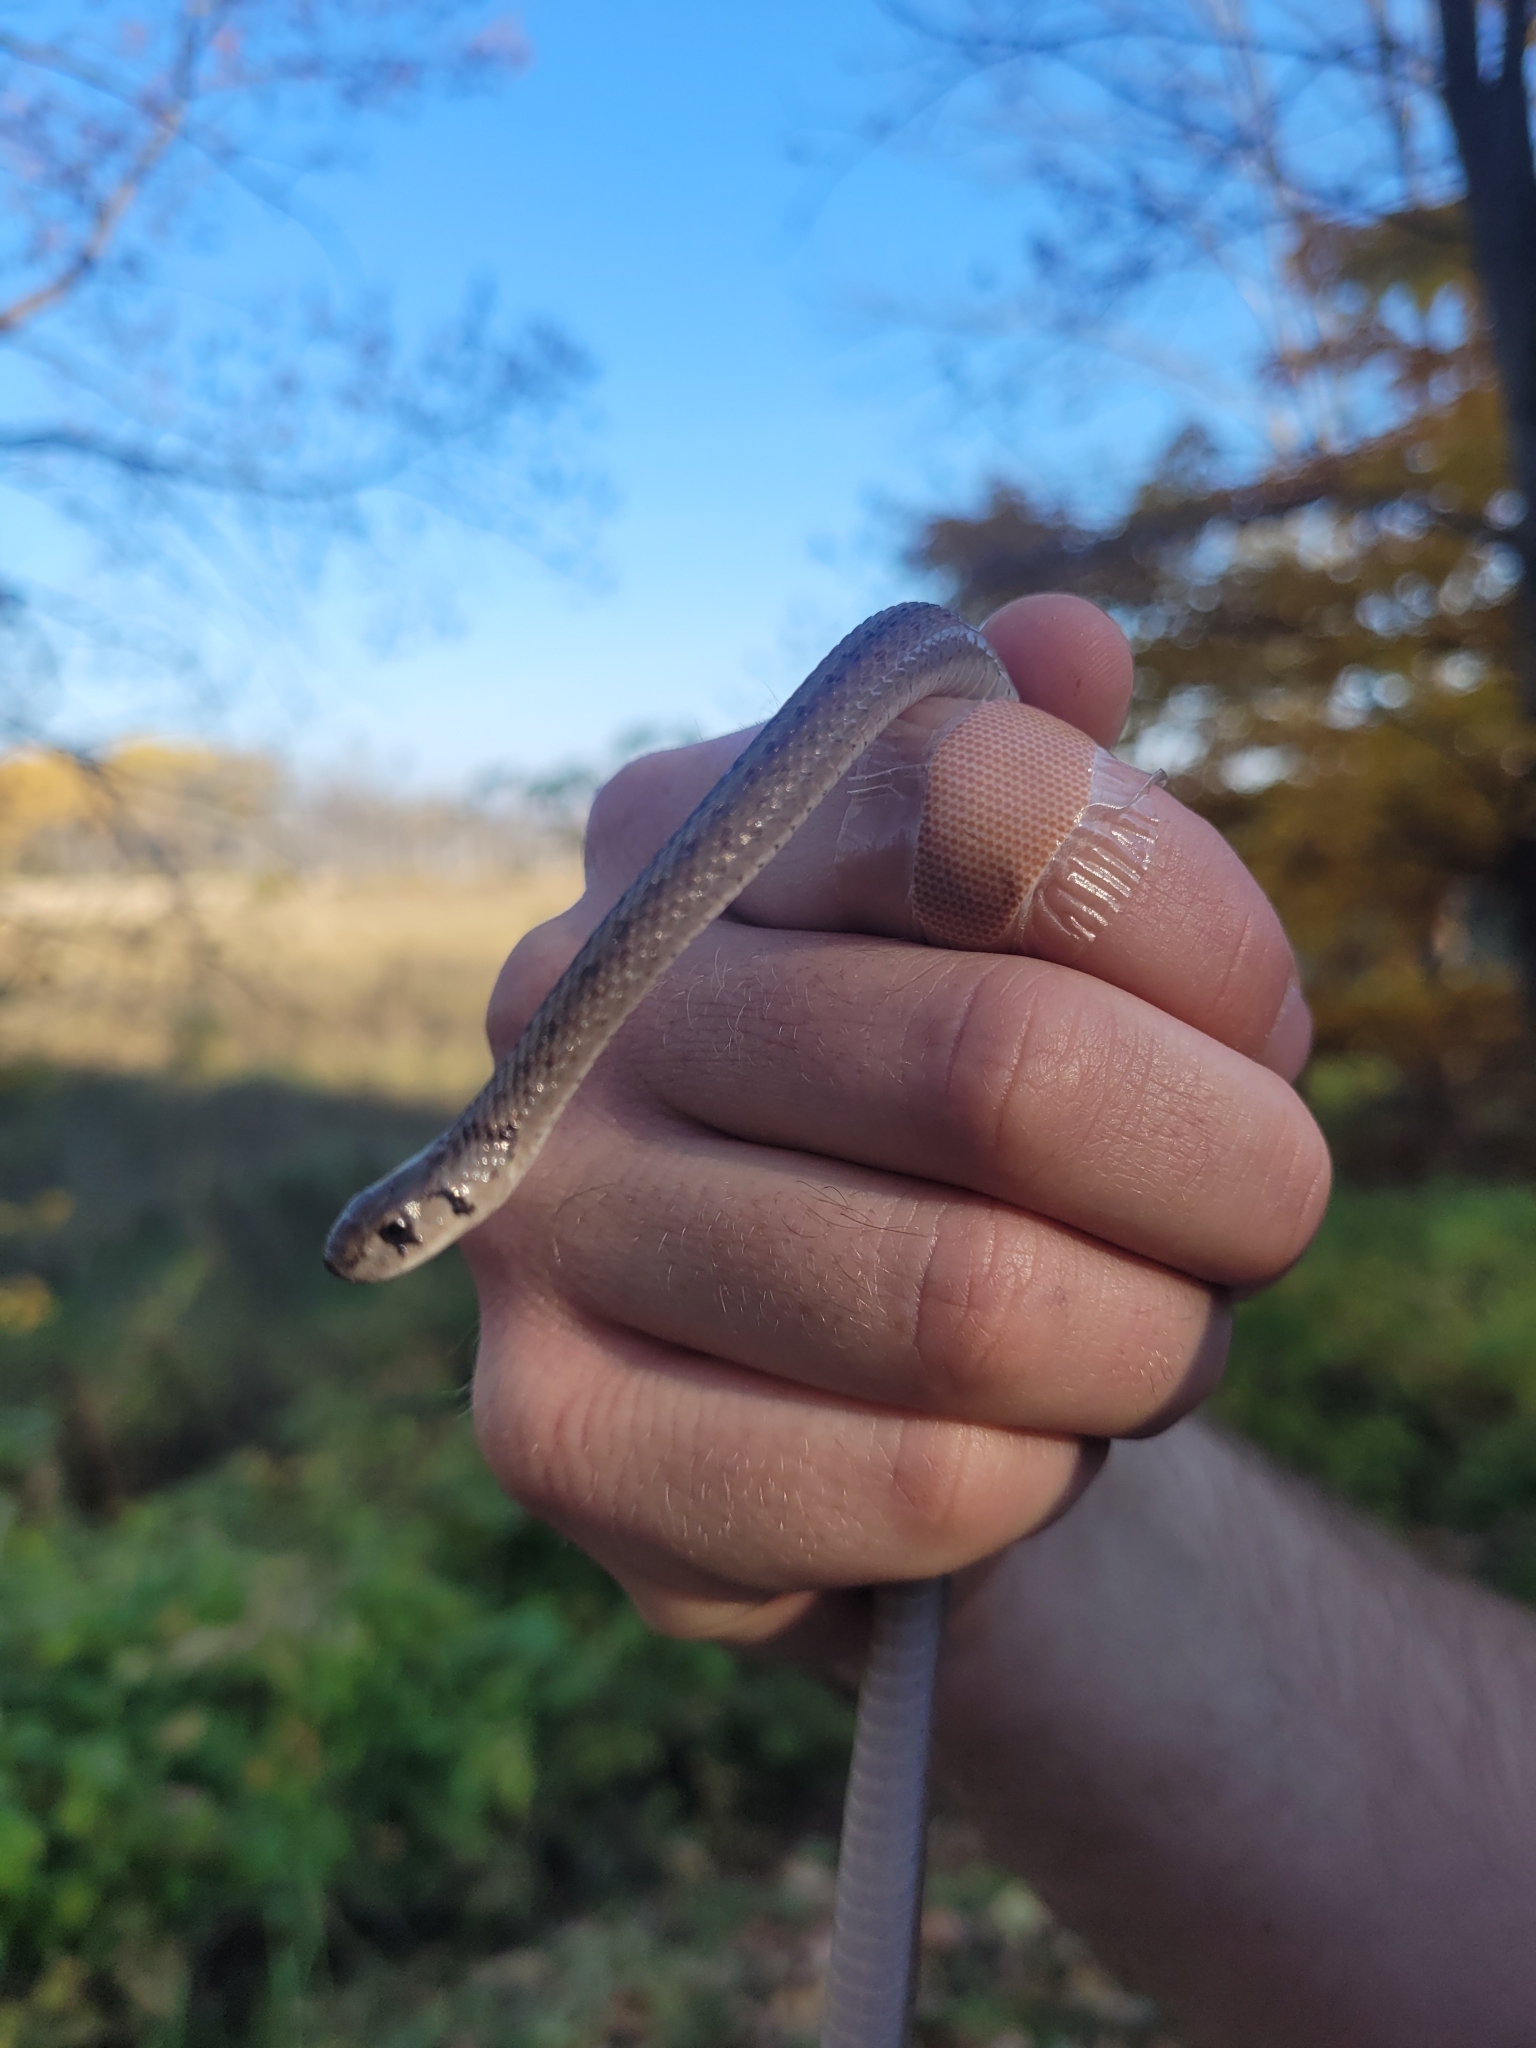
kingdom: Animalia
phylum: Chordata
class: Squamata
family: Colubridae
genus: Storeria
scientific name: Storeria dekayi
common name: (dekay’s) brown snake
